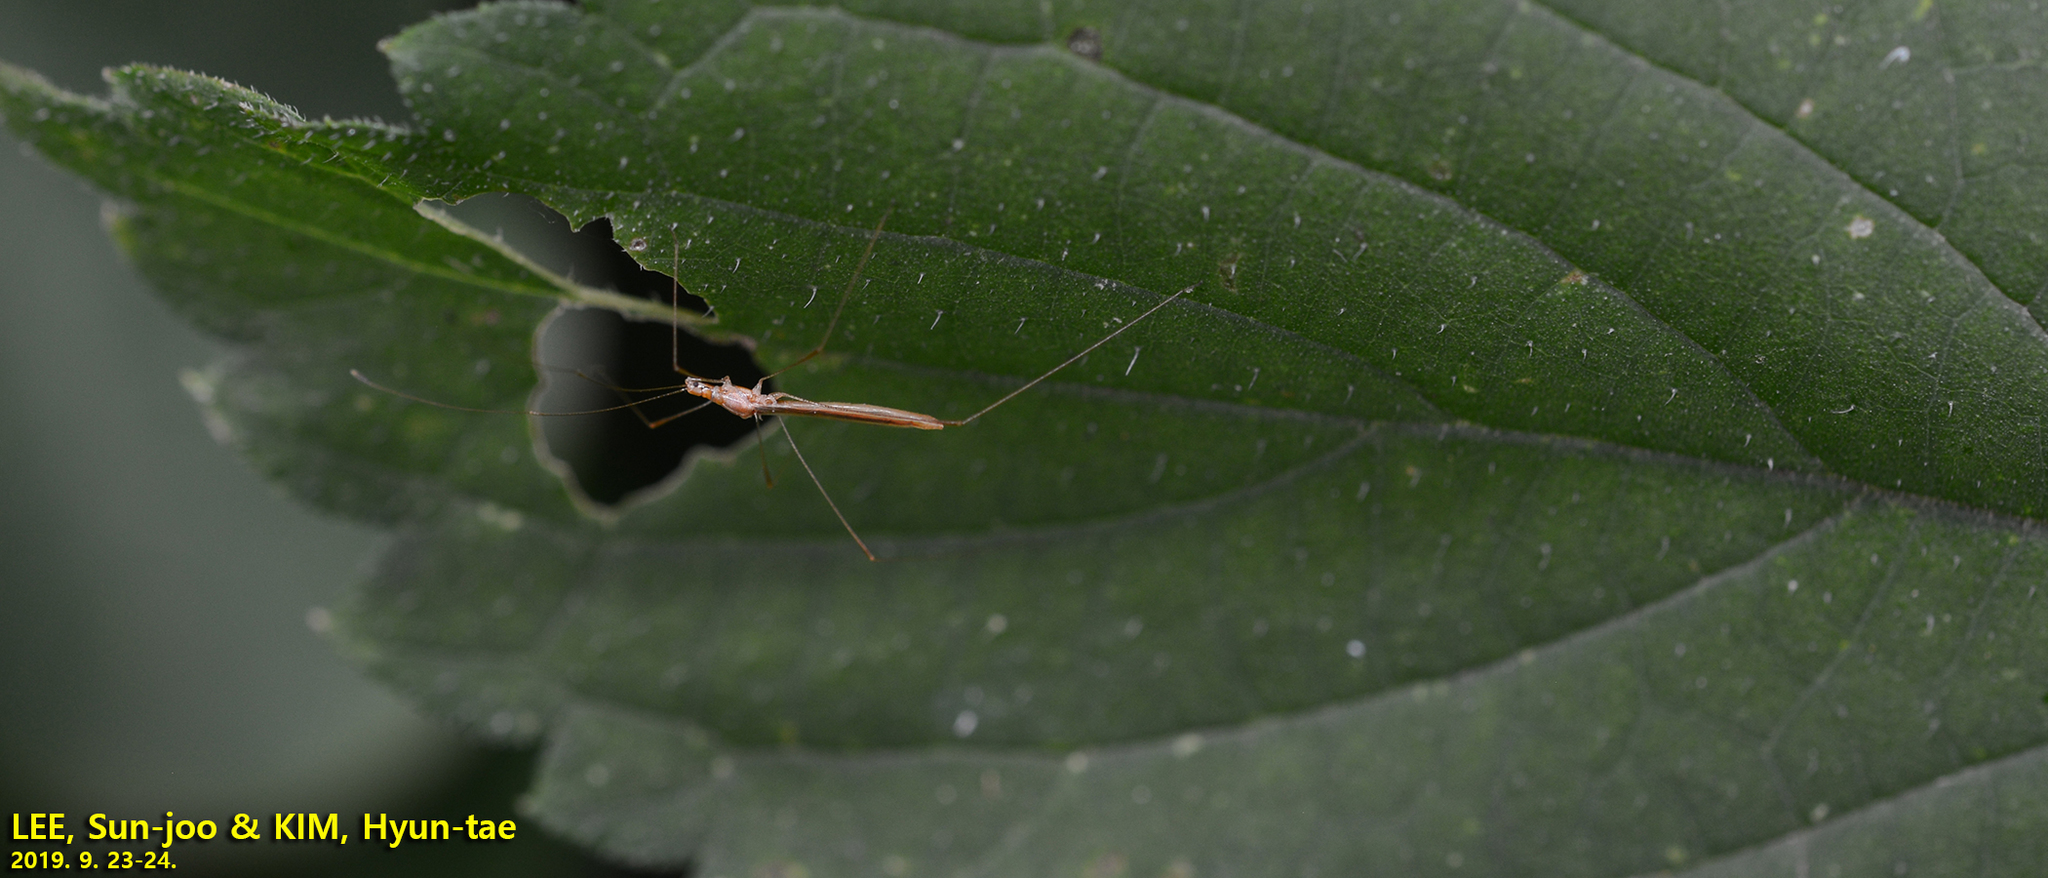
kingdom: Animalia
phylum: Arthropoda
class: Insecta
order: Hemiptera
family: Berytidae
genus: Yemma
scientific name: Yemma exilis
